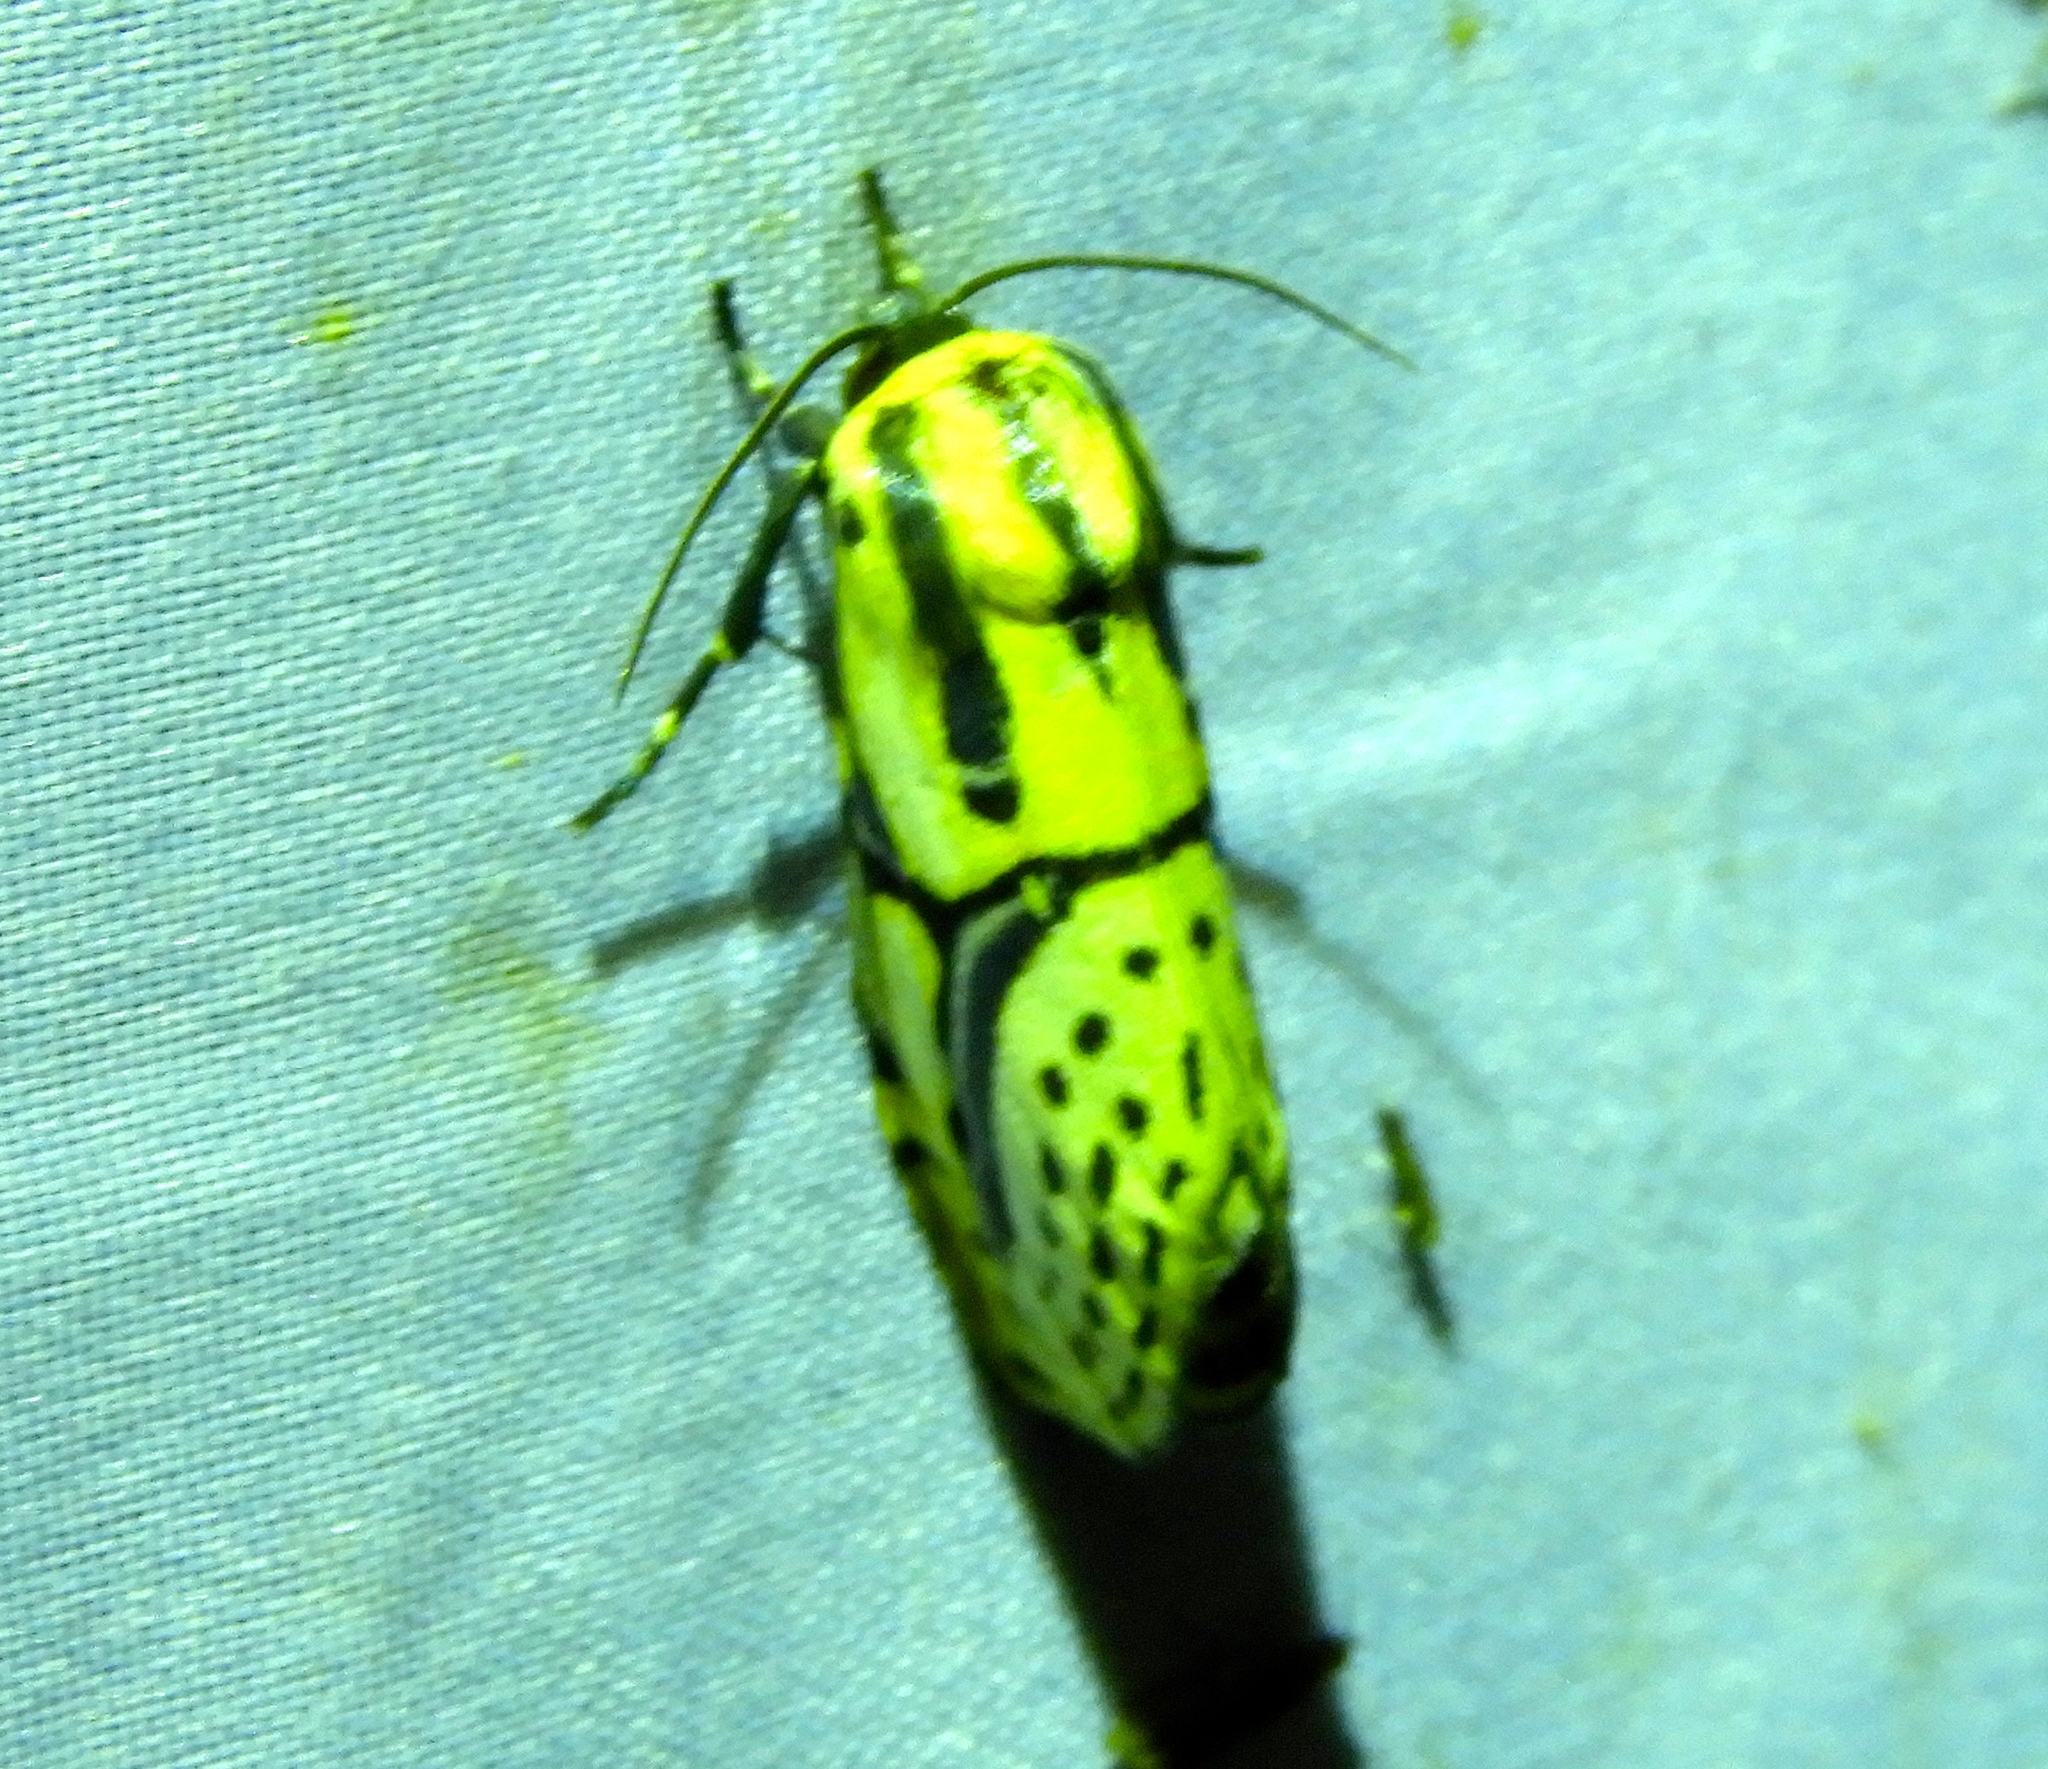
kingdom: Animalia
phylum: Arthropoda
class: Insecta
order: Lepidoptera
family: Erebidae
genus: Diphthera
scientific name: Diphthera festiva
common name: Hieroglyphic moth
